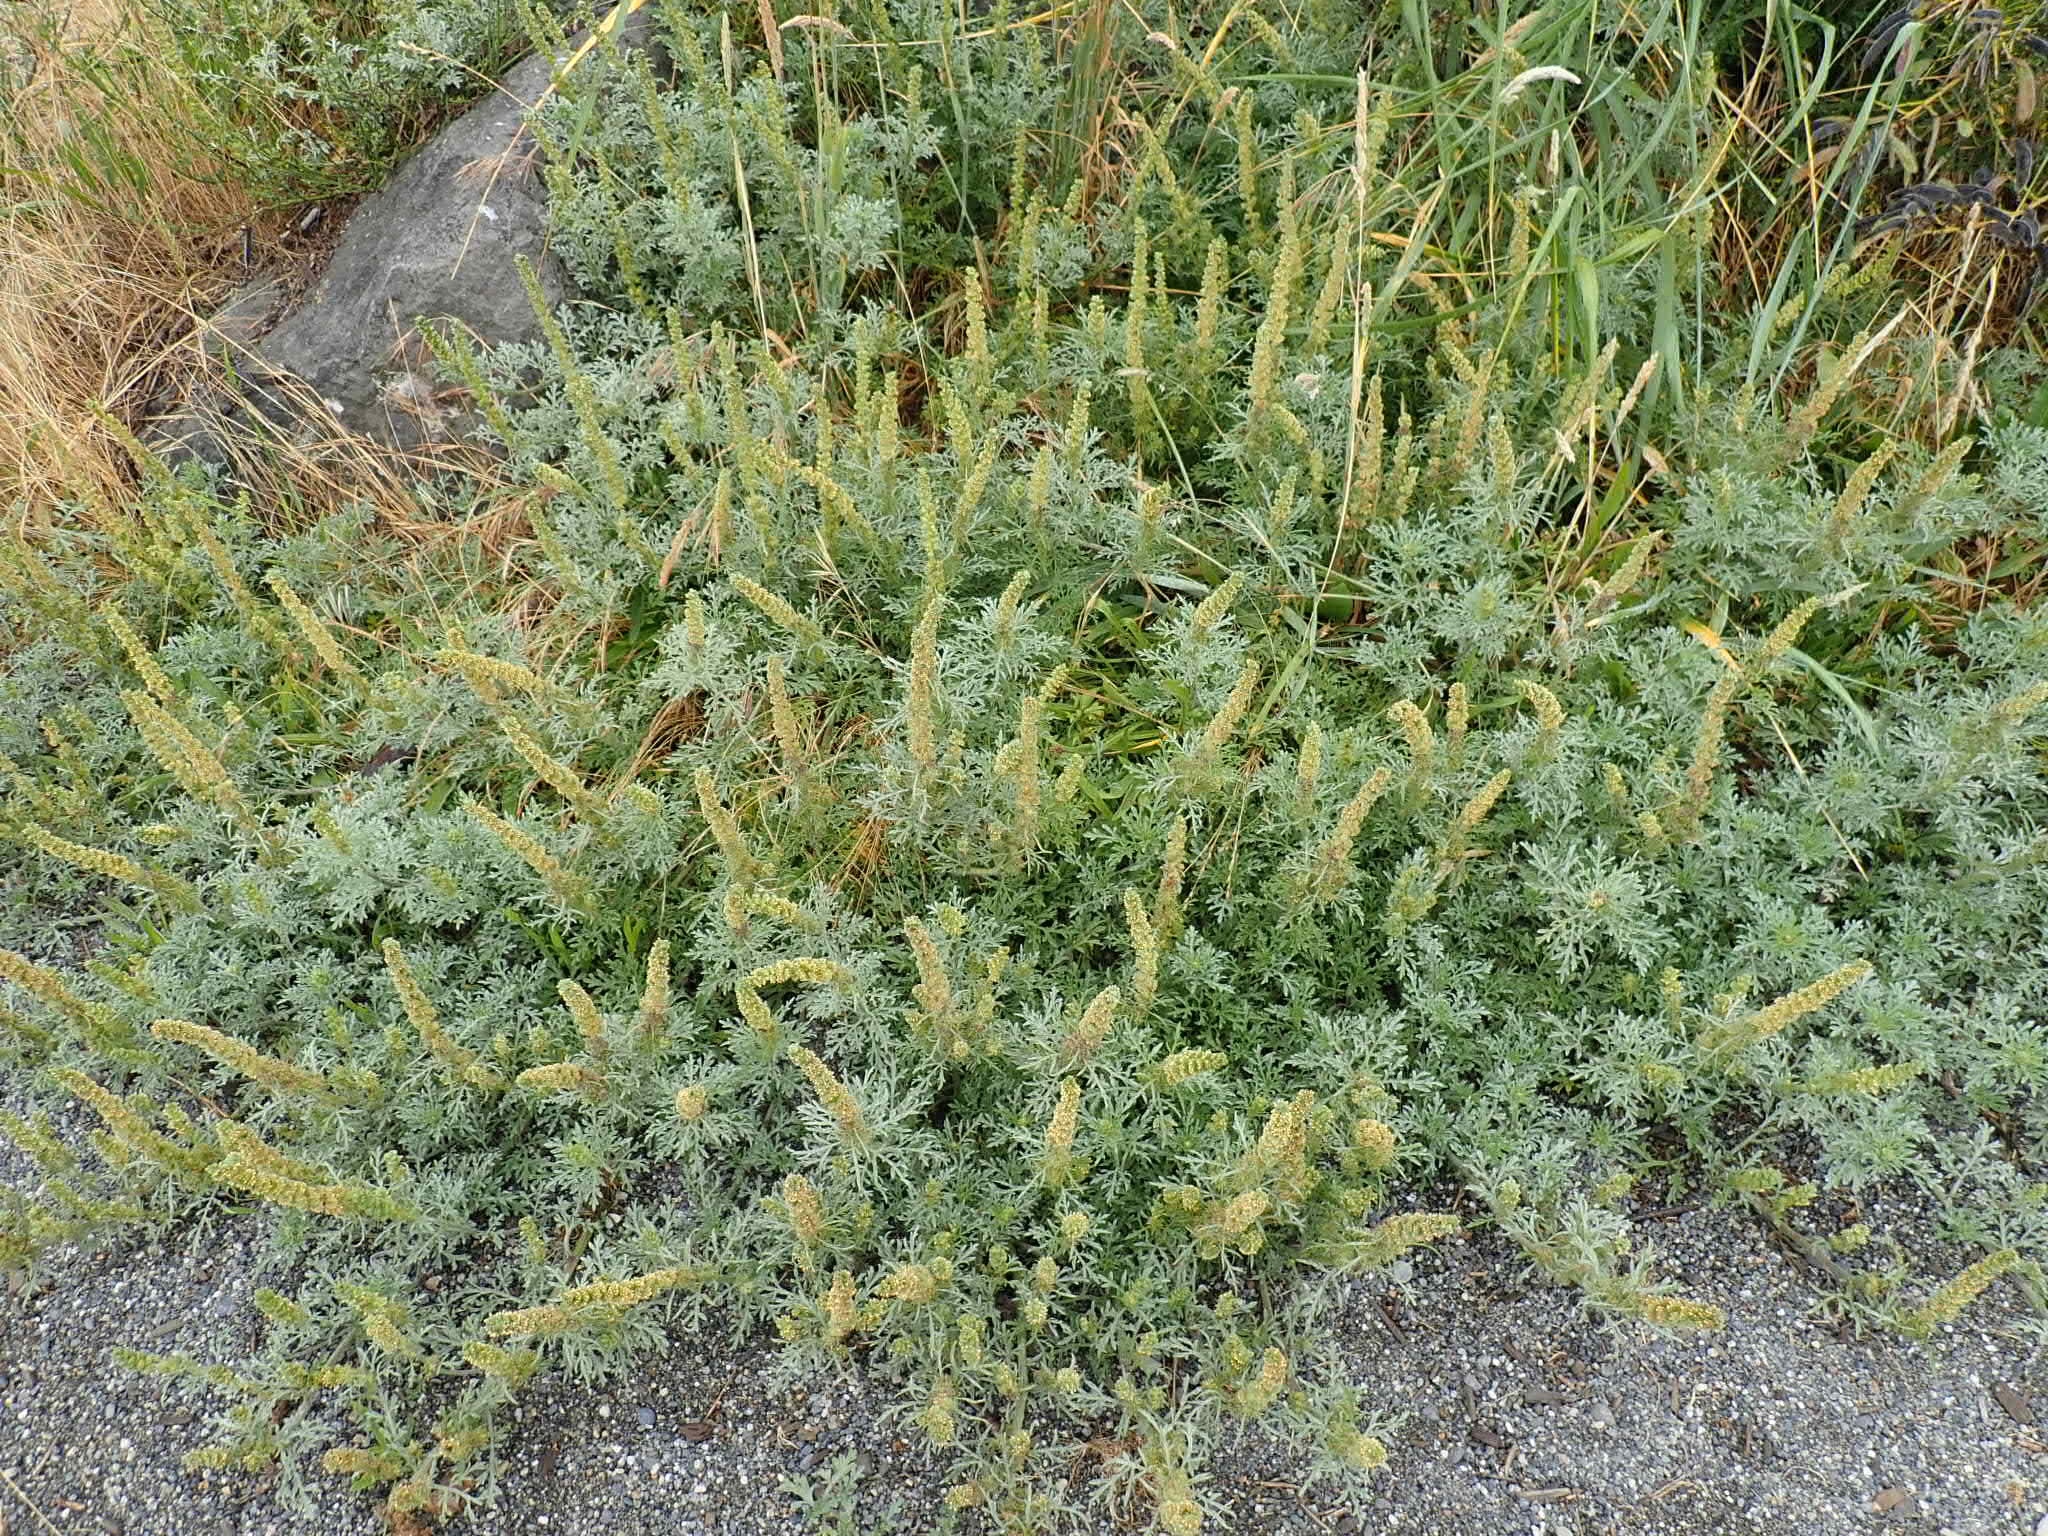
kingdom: Plantae
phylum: Tracheophyta
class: Magnoliopsida
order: Asterales
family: Asteraceae
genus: Ambrosia
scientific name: Ambrosia chamissonis
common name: Beachbur
